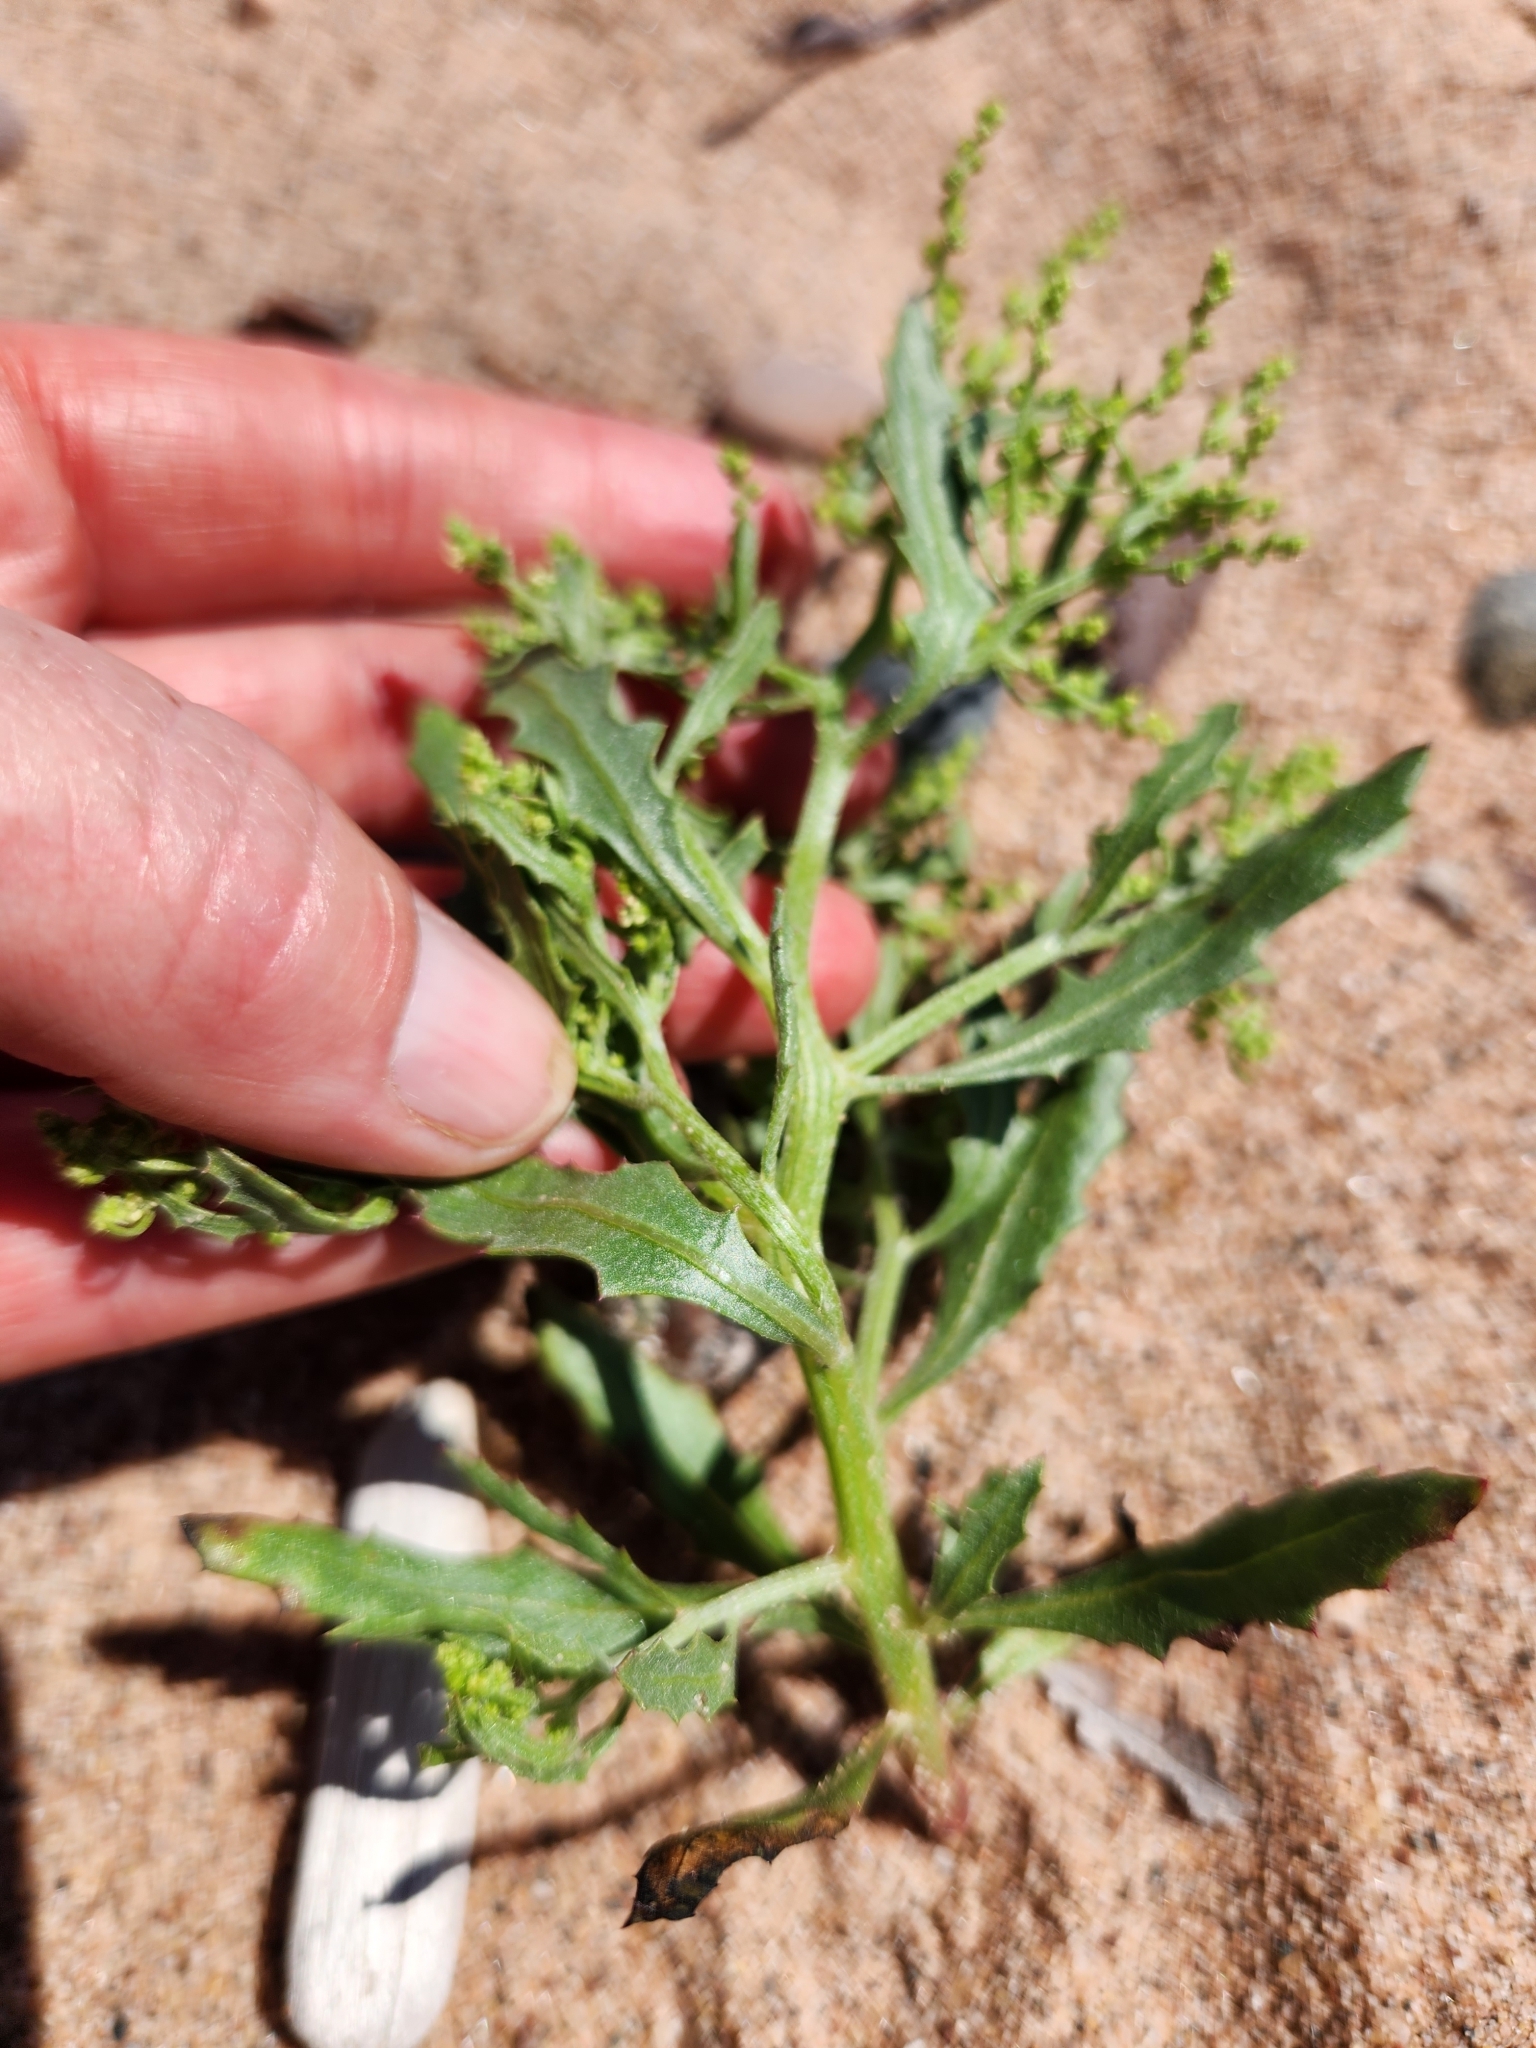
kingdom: Plantae
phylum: Tracheophyta
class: Magnoliopsida
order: Caryophyllales
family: Amaranthaceae
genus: Dysphania
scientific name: Dysphania atriplicifolia
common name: Plains tumbleweed
